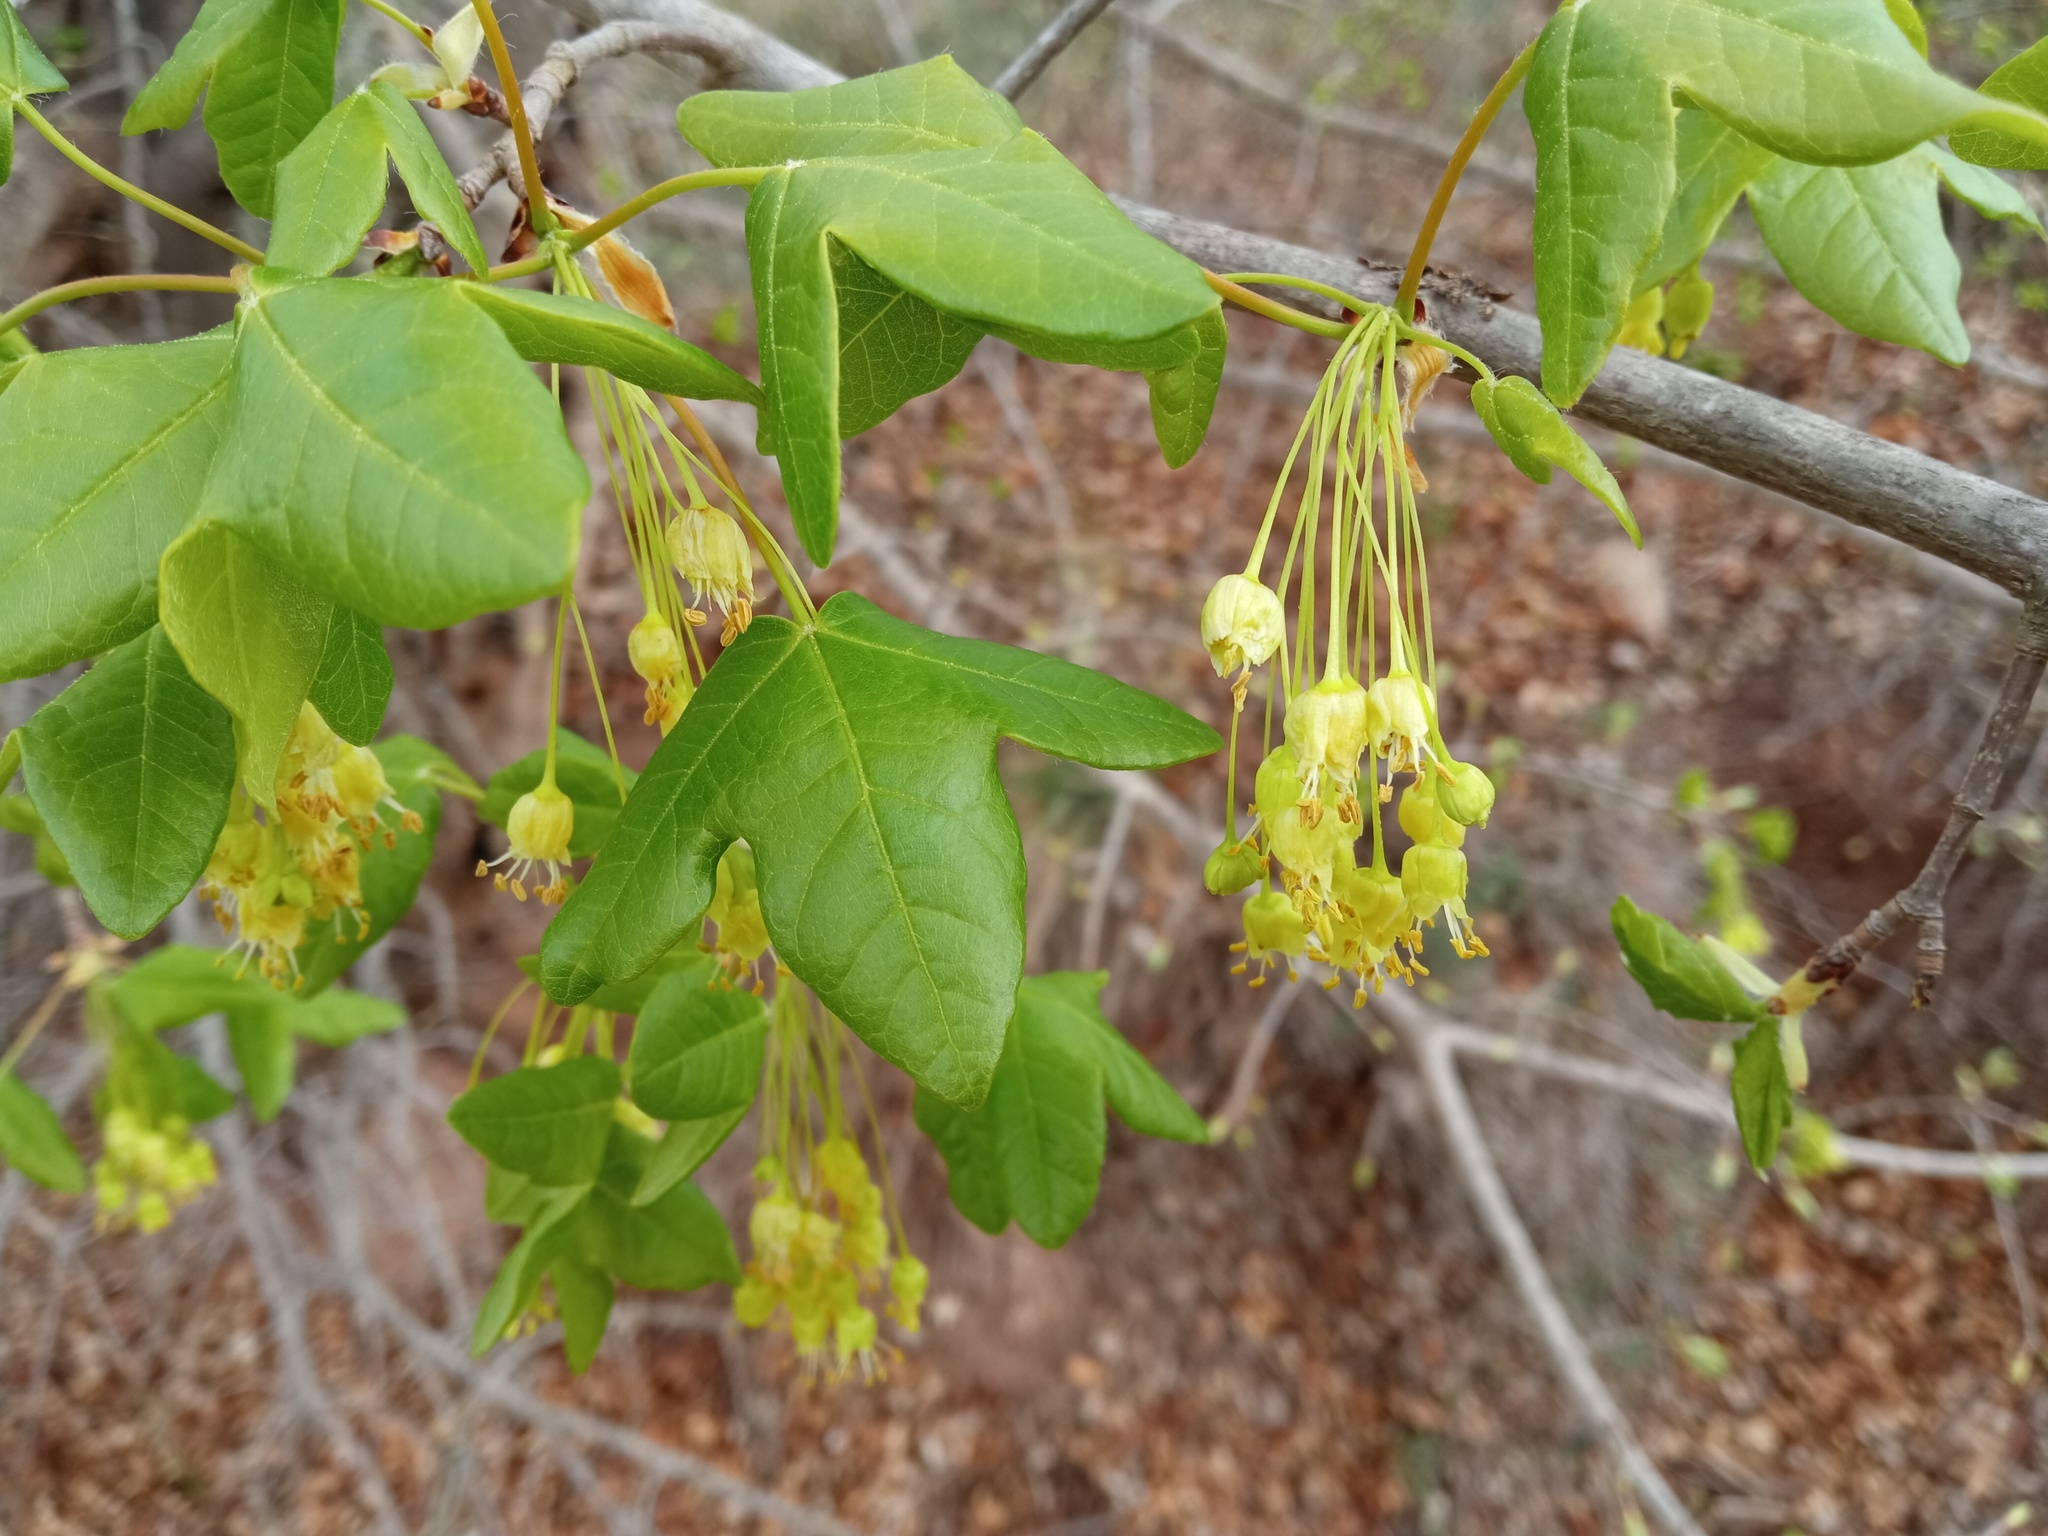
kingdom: Plantae
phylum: Tracheophyta
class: Magnoliopsida
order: Sapindales
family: Sapindaceae
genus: Acer
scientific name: Acer monspessulanum
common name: Montpellier maple
